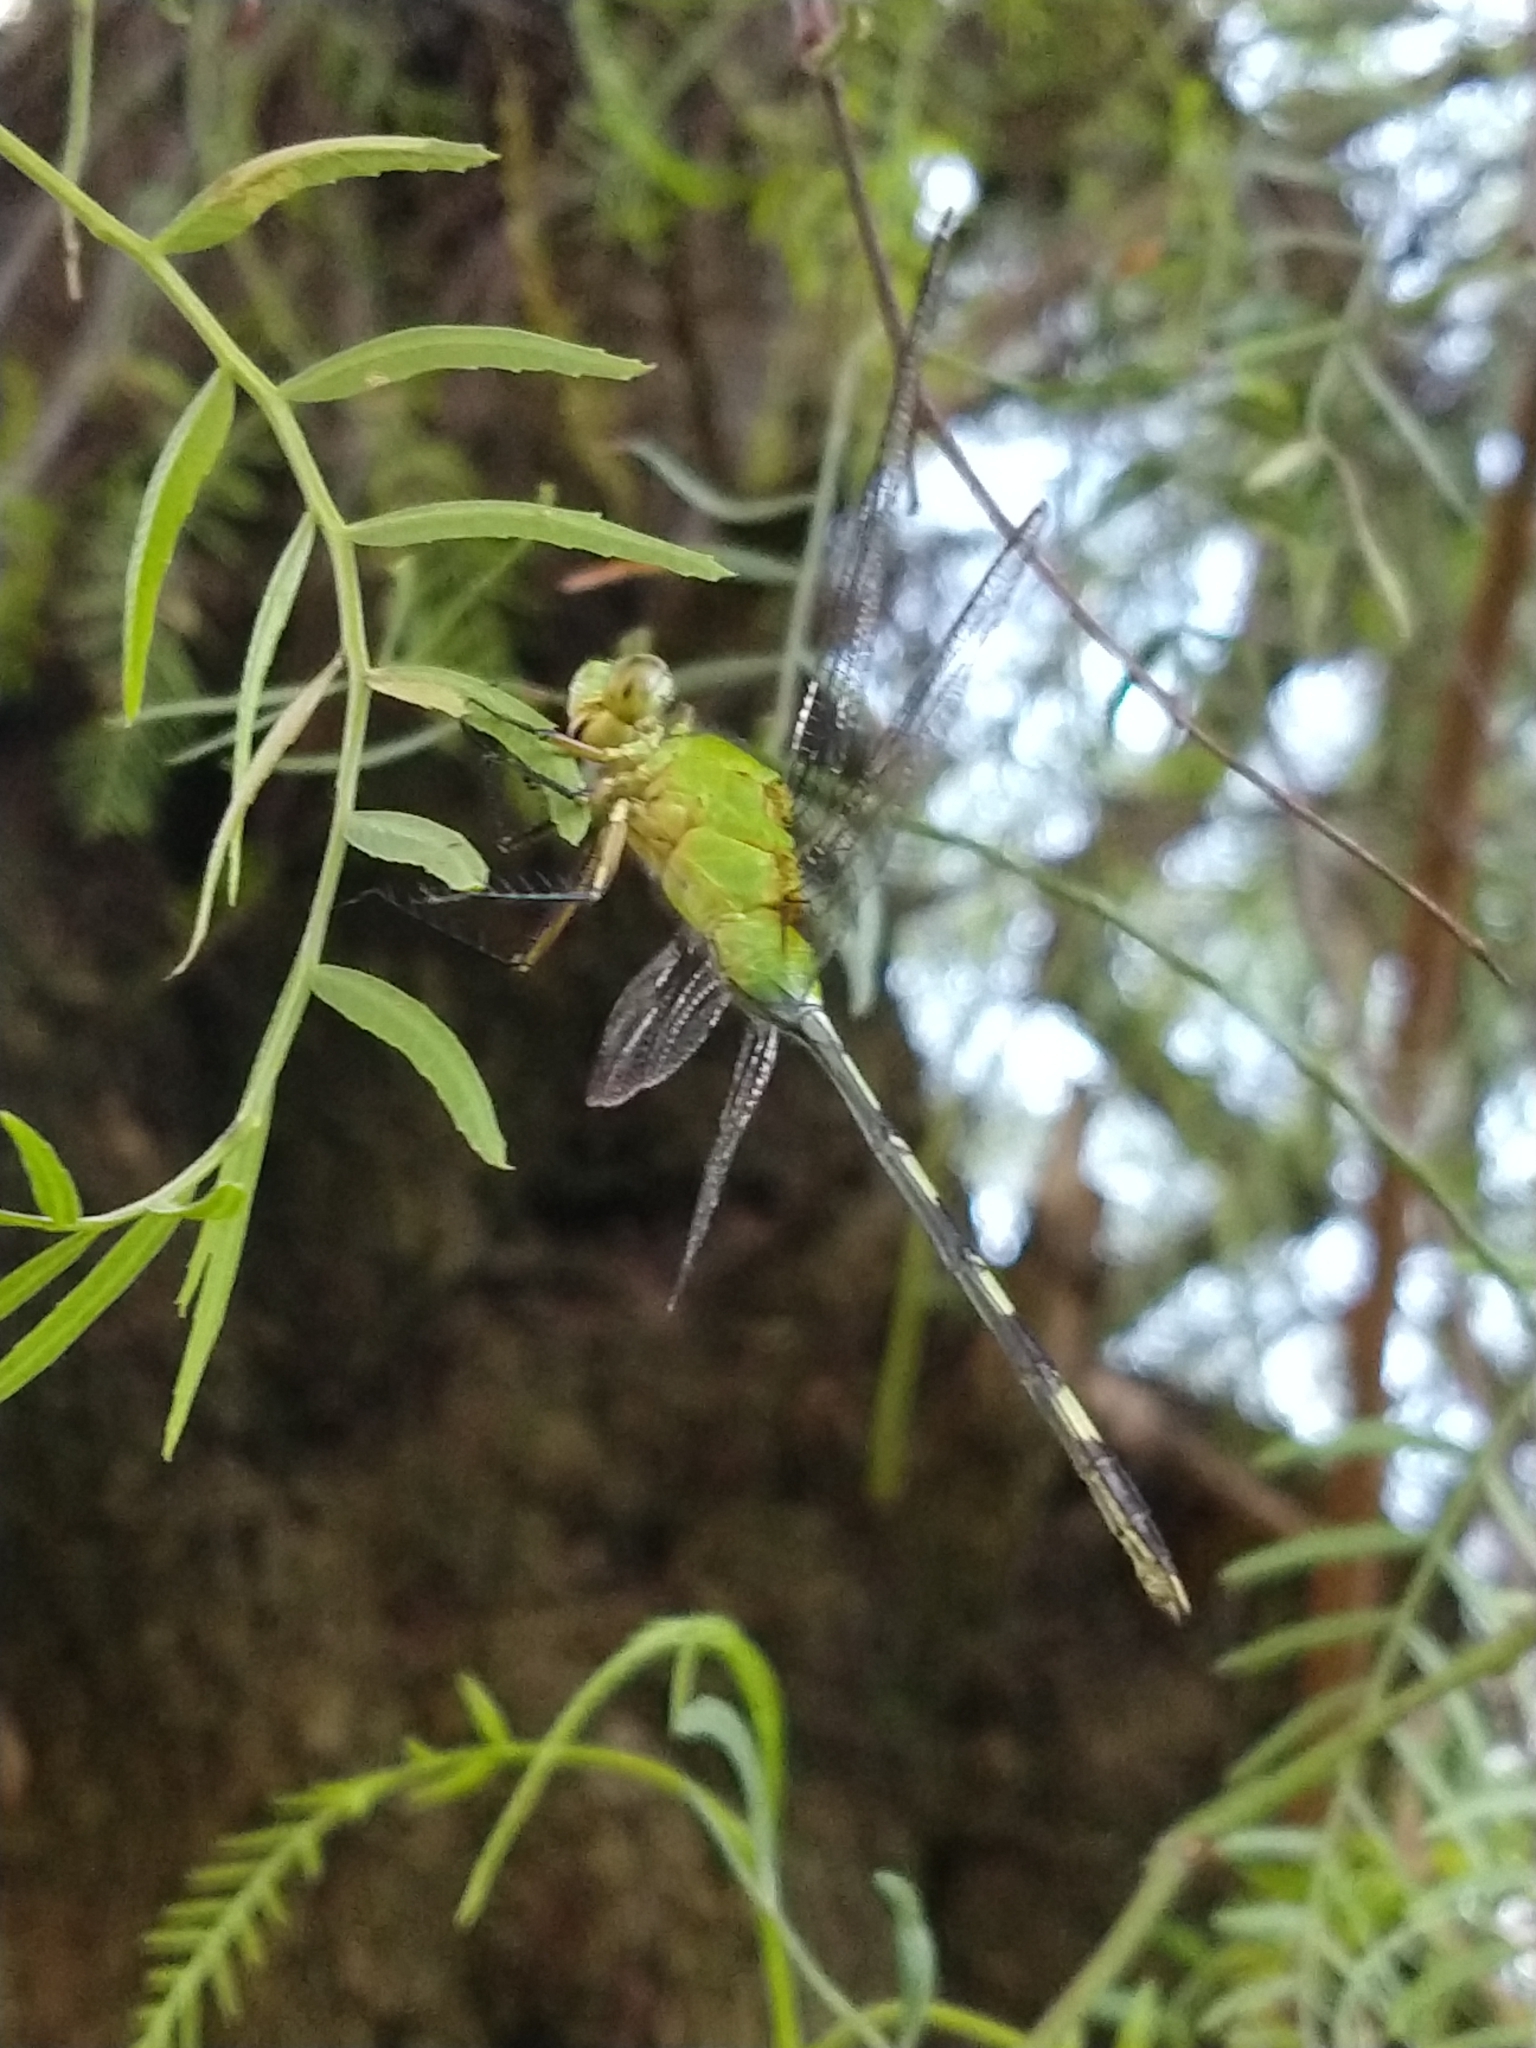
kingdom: Animalia
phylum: Arthropoda
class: Insecta
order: Odonata
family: Libellulidae
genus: Erythemis
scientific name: Erythemis vesiculosa
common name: Great pondhawk
